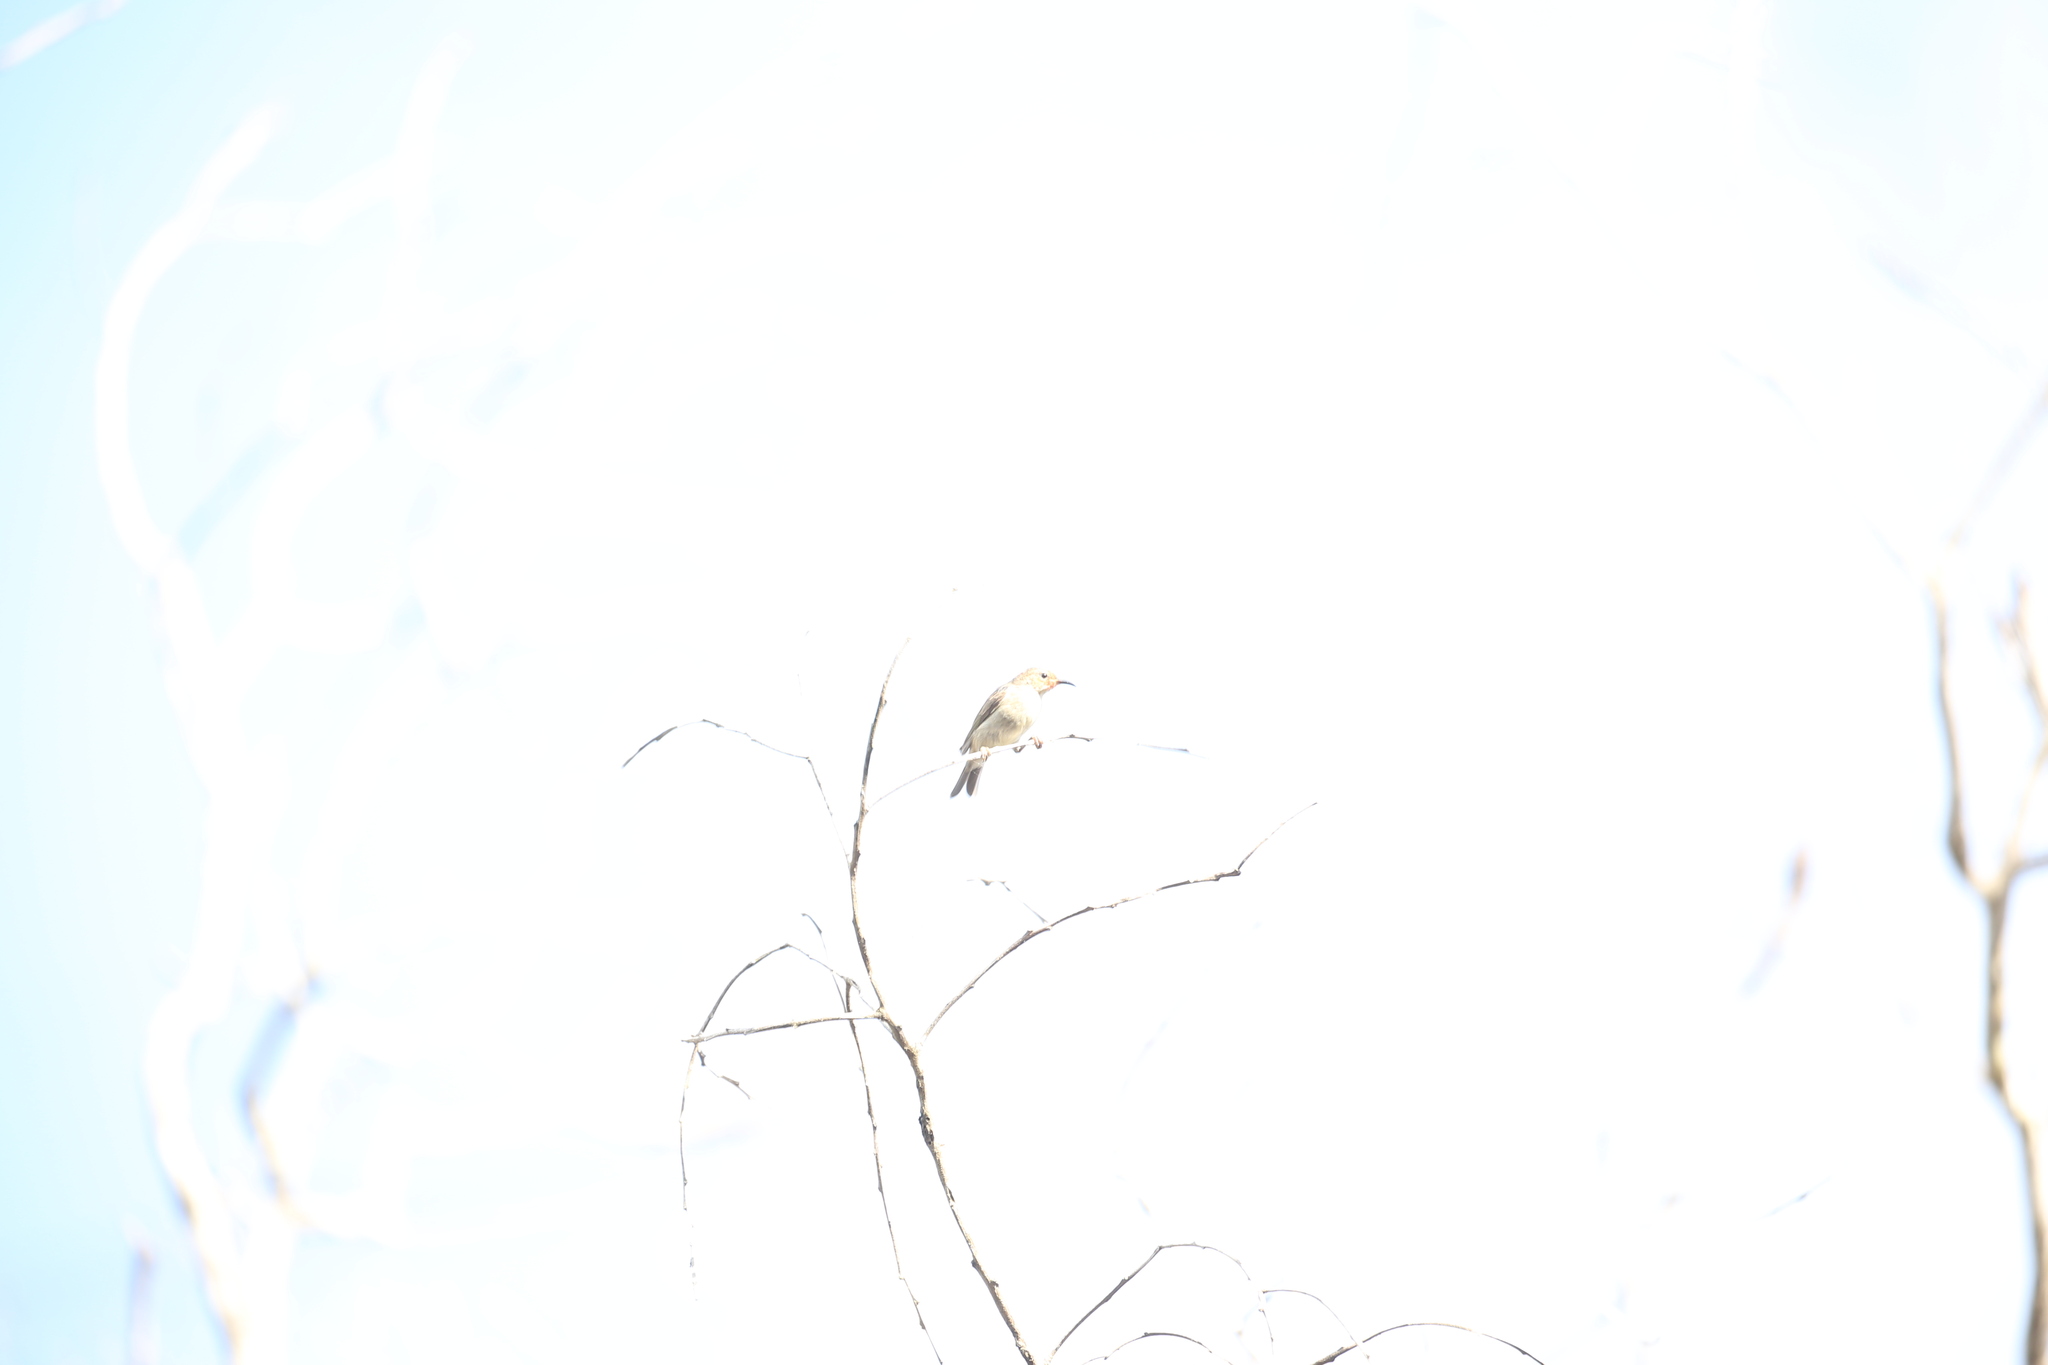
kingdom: Animalia
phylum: Chordata
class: Aves
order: Passeriformes
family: Meliphagidae
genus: Myzomela
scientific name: Myzomela sanguinolenta
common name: Scarlet myzomela
